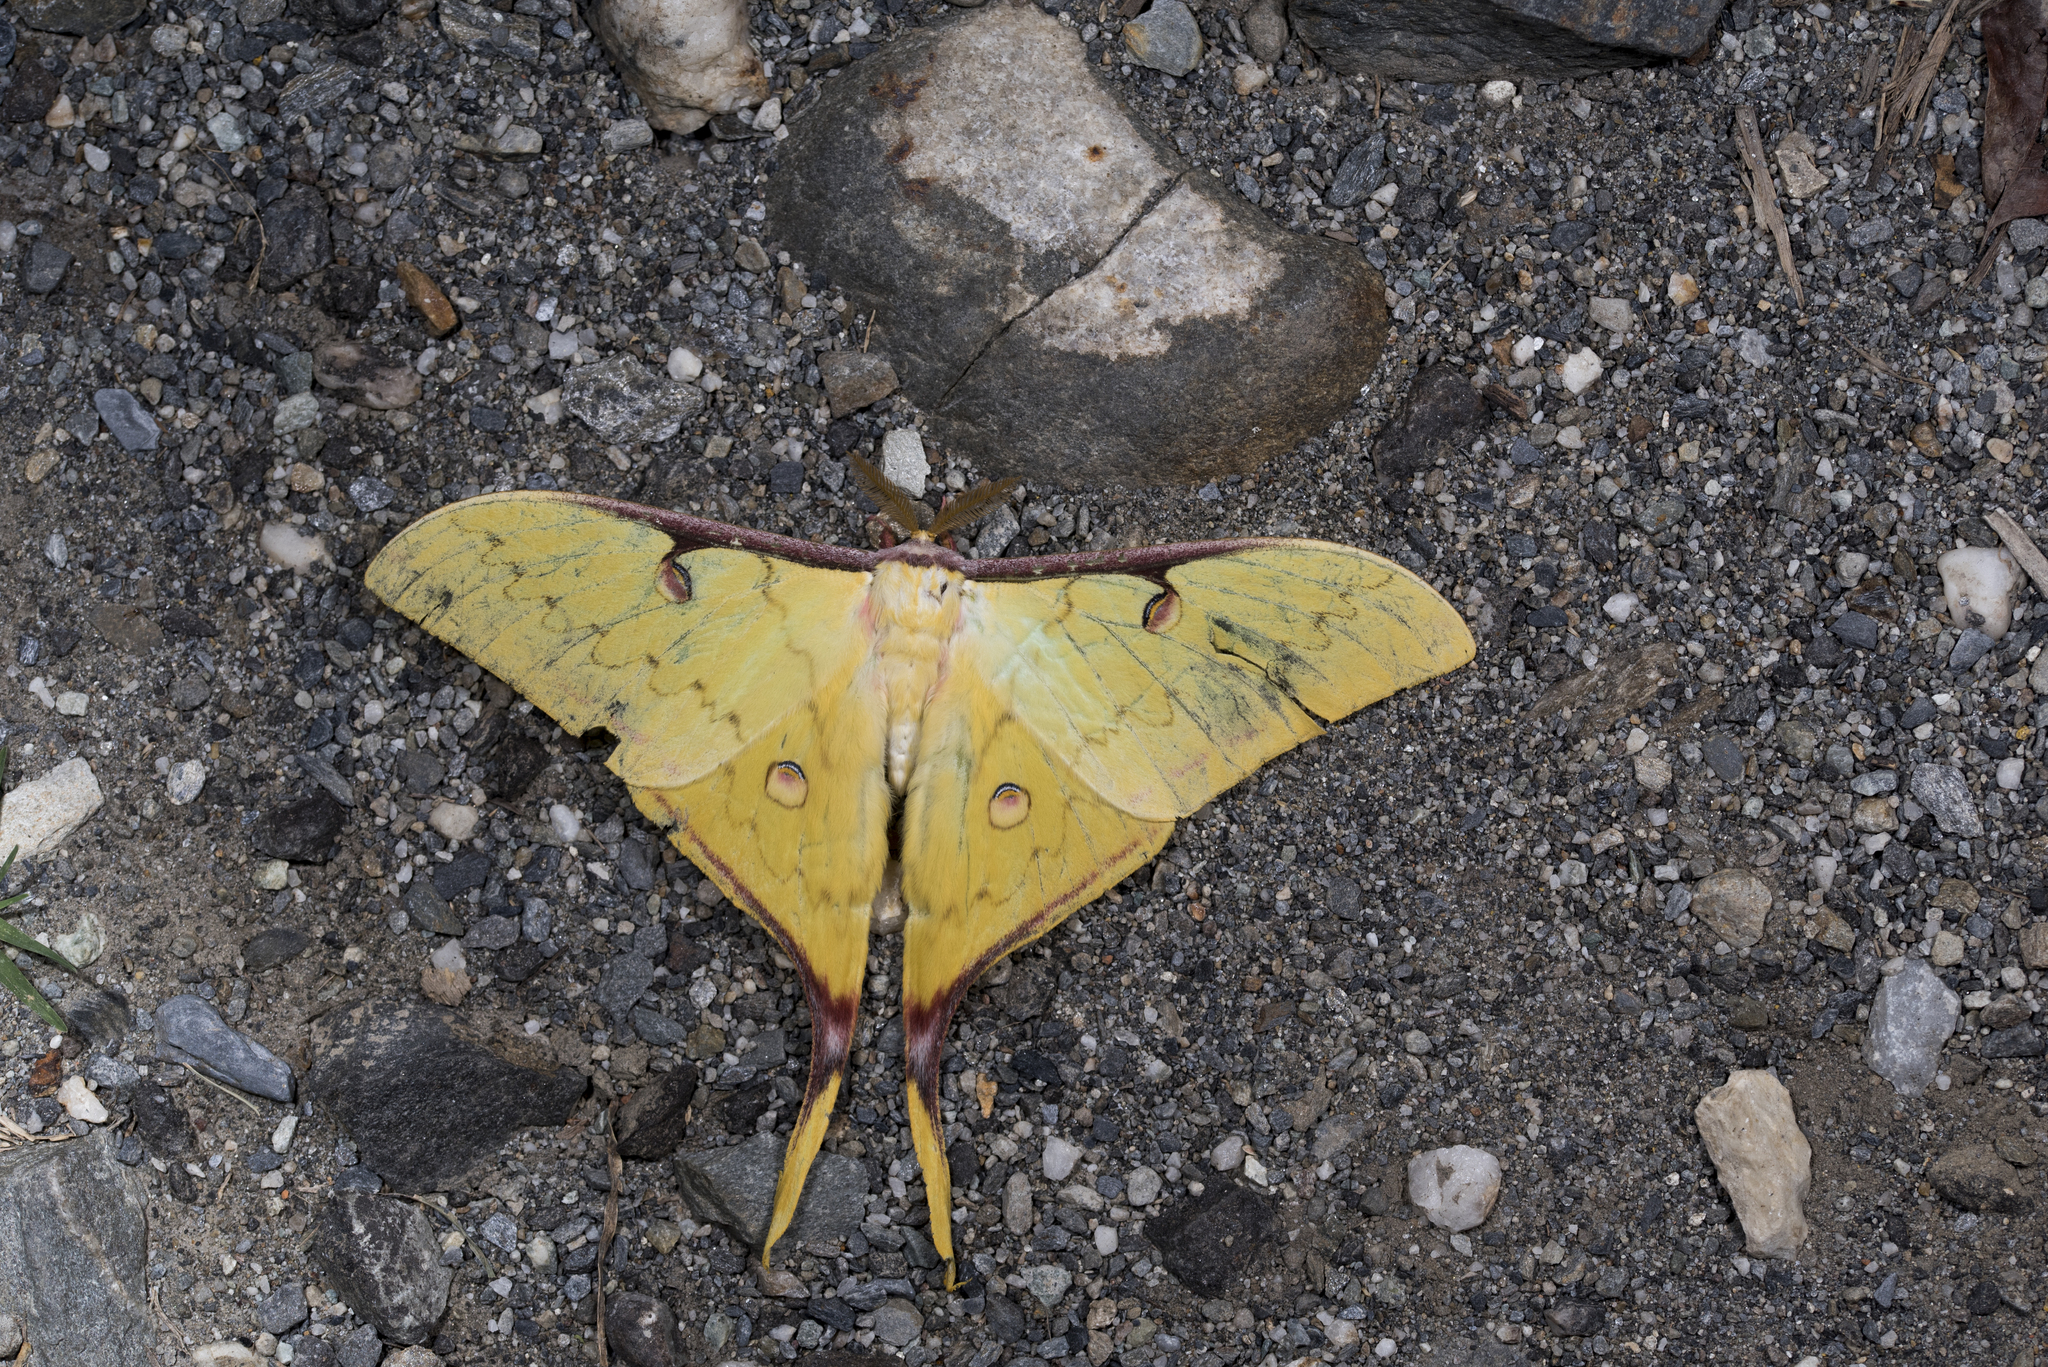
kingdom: Animalia
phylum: Arthropoda
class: Insecta
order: Lepidoptera
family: Saturniidae
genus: Actias
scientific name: Actias sinensis
